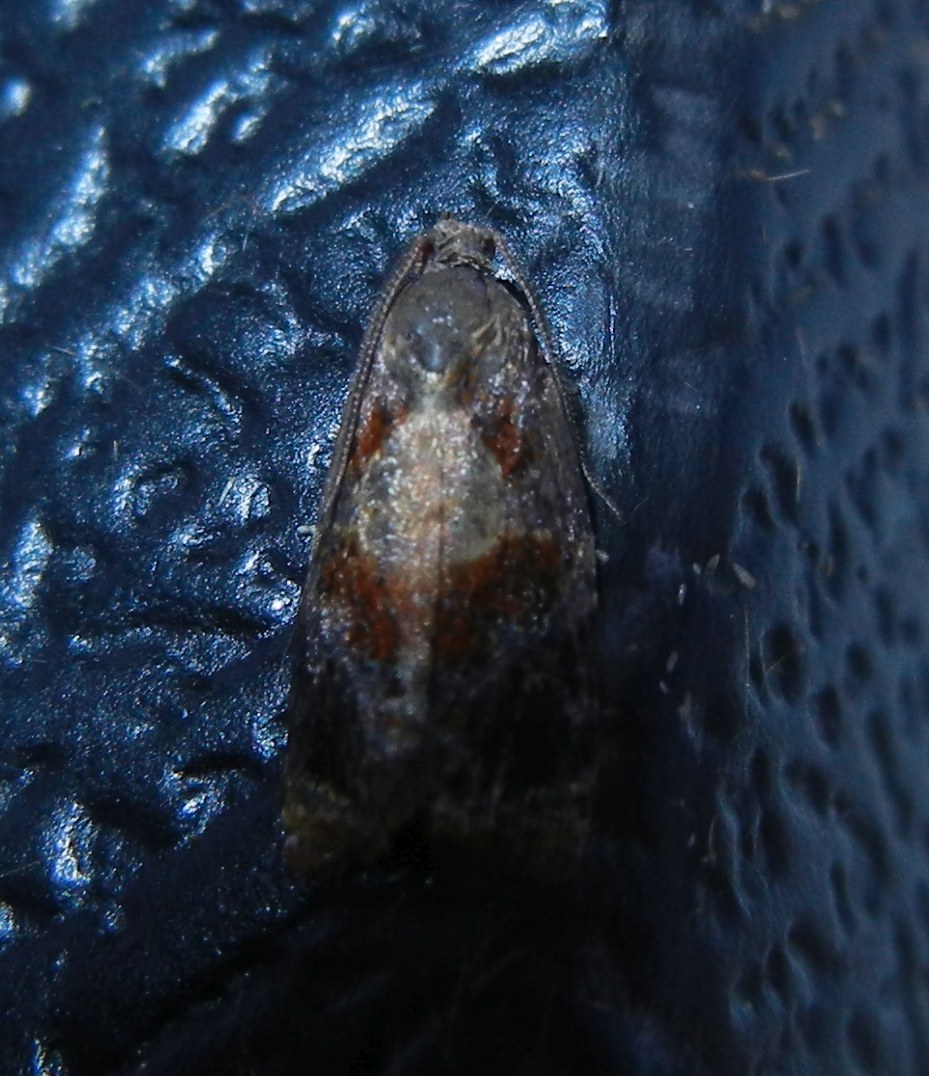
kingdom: Animalia
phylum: Arthropoda
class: Insecta
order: Lepidoptera
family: Tortricidae
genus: Ditula
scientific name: Ditula angustiorana
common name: Red-barred tortrix
